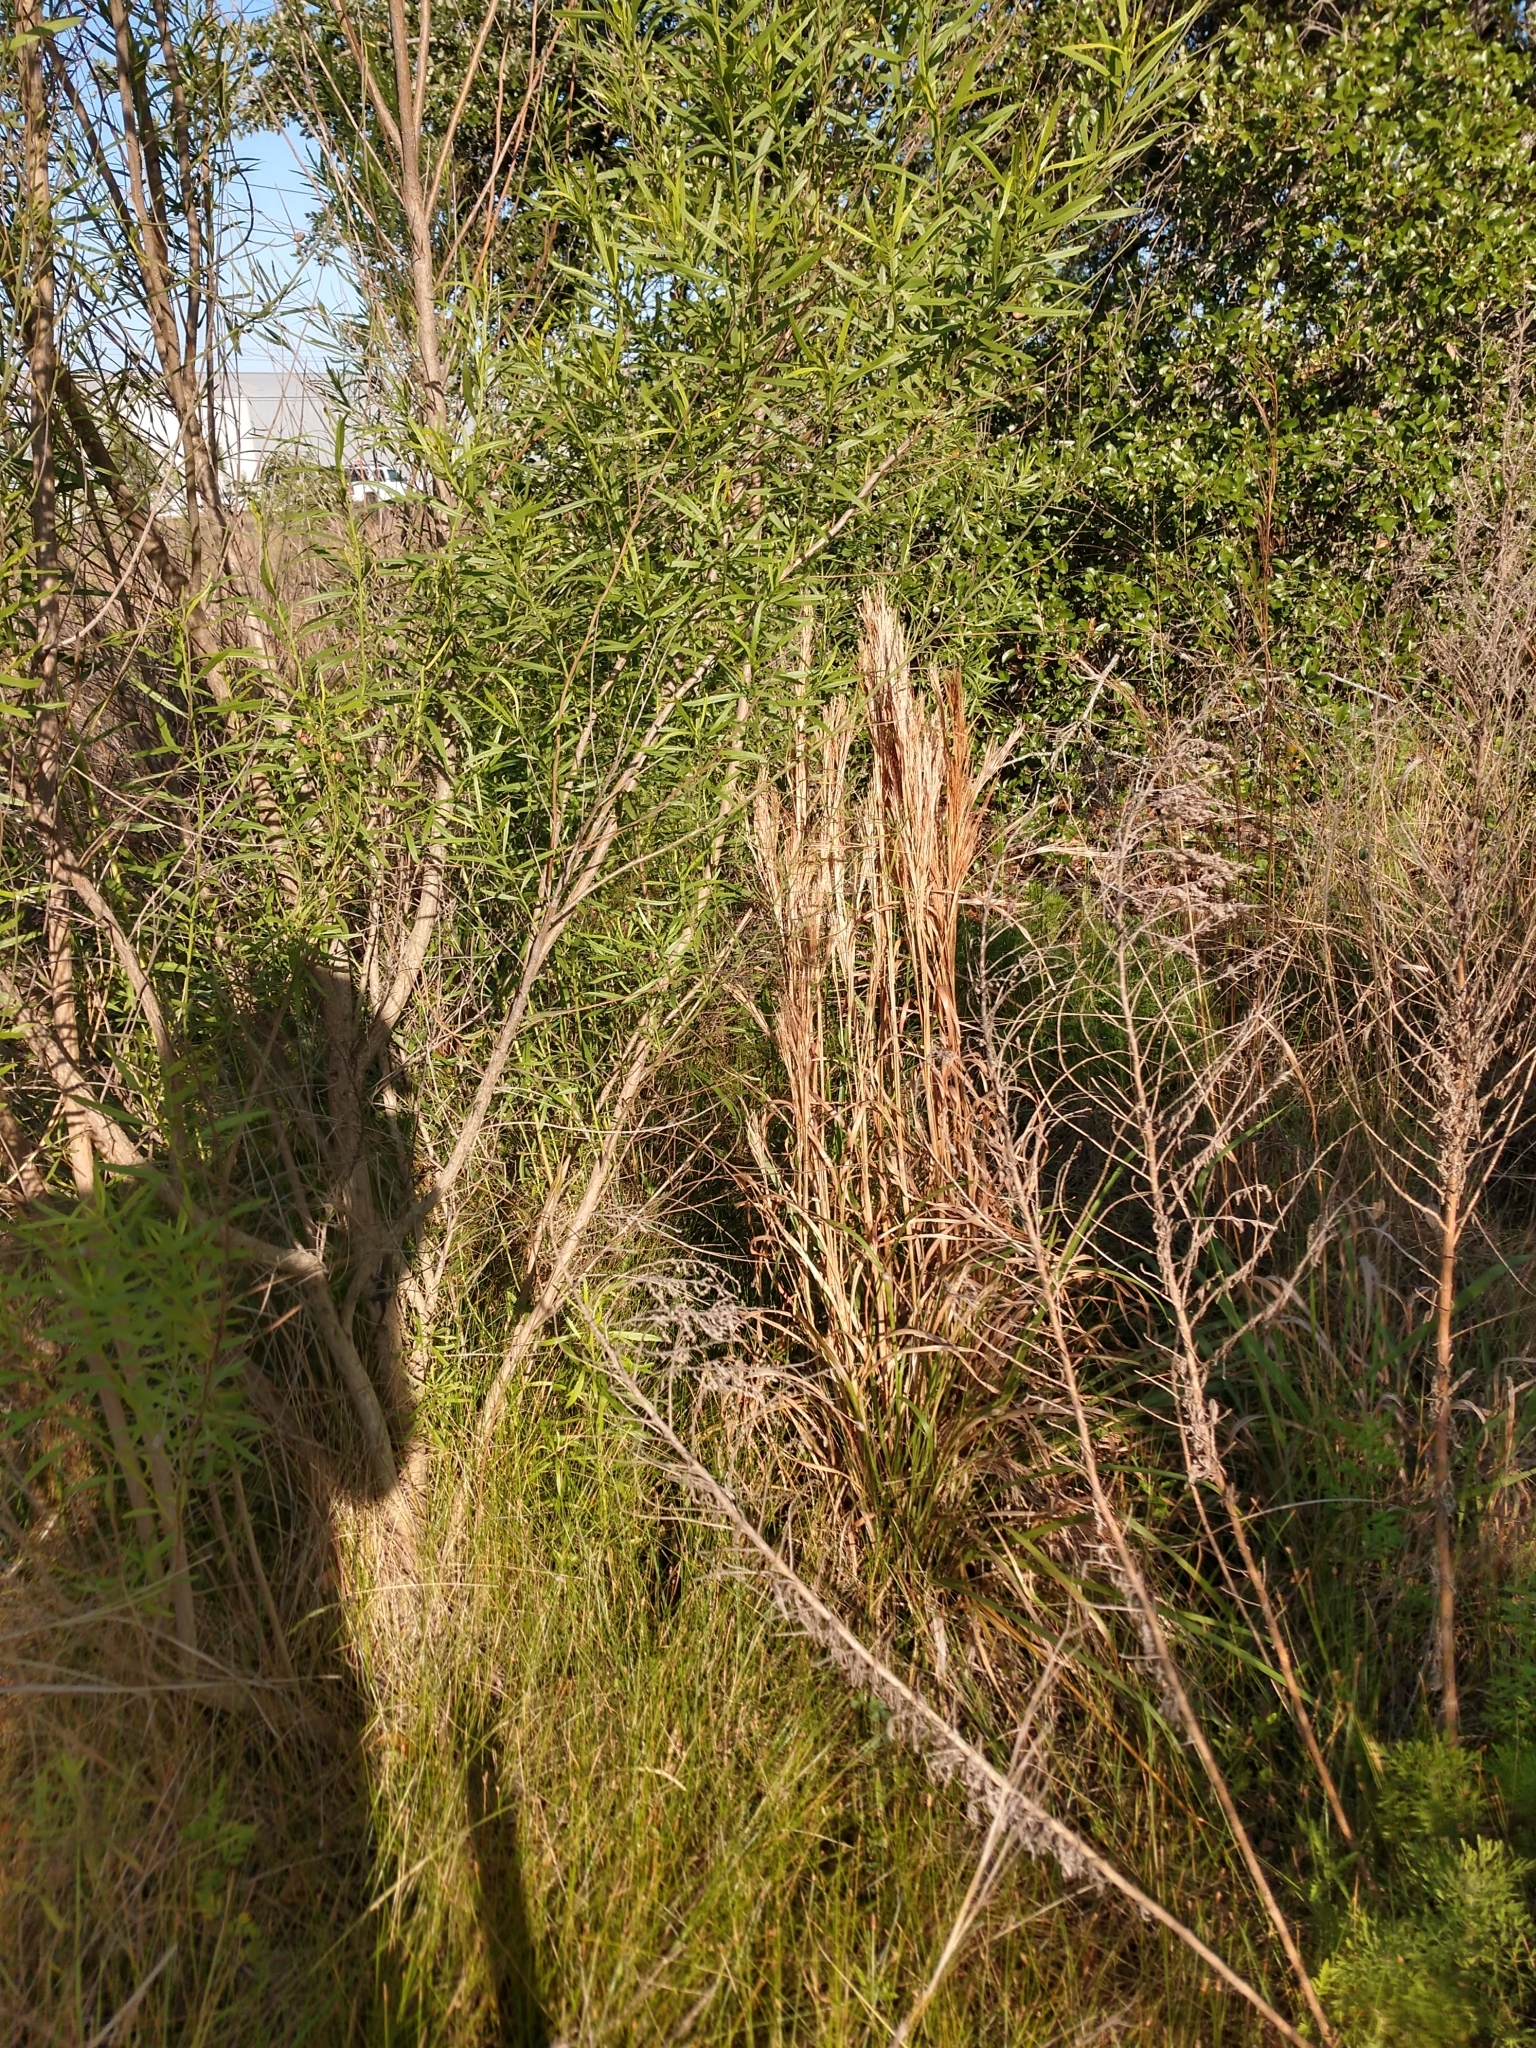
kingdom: Plantae
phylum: Tracheophyta
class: Liliopsida
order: Poales
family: Poaceae
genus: Andropogon
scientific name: Andropogon tenuispatheus
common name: Bushy bluestem
